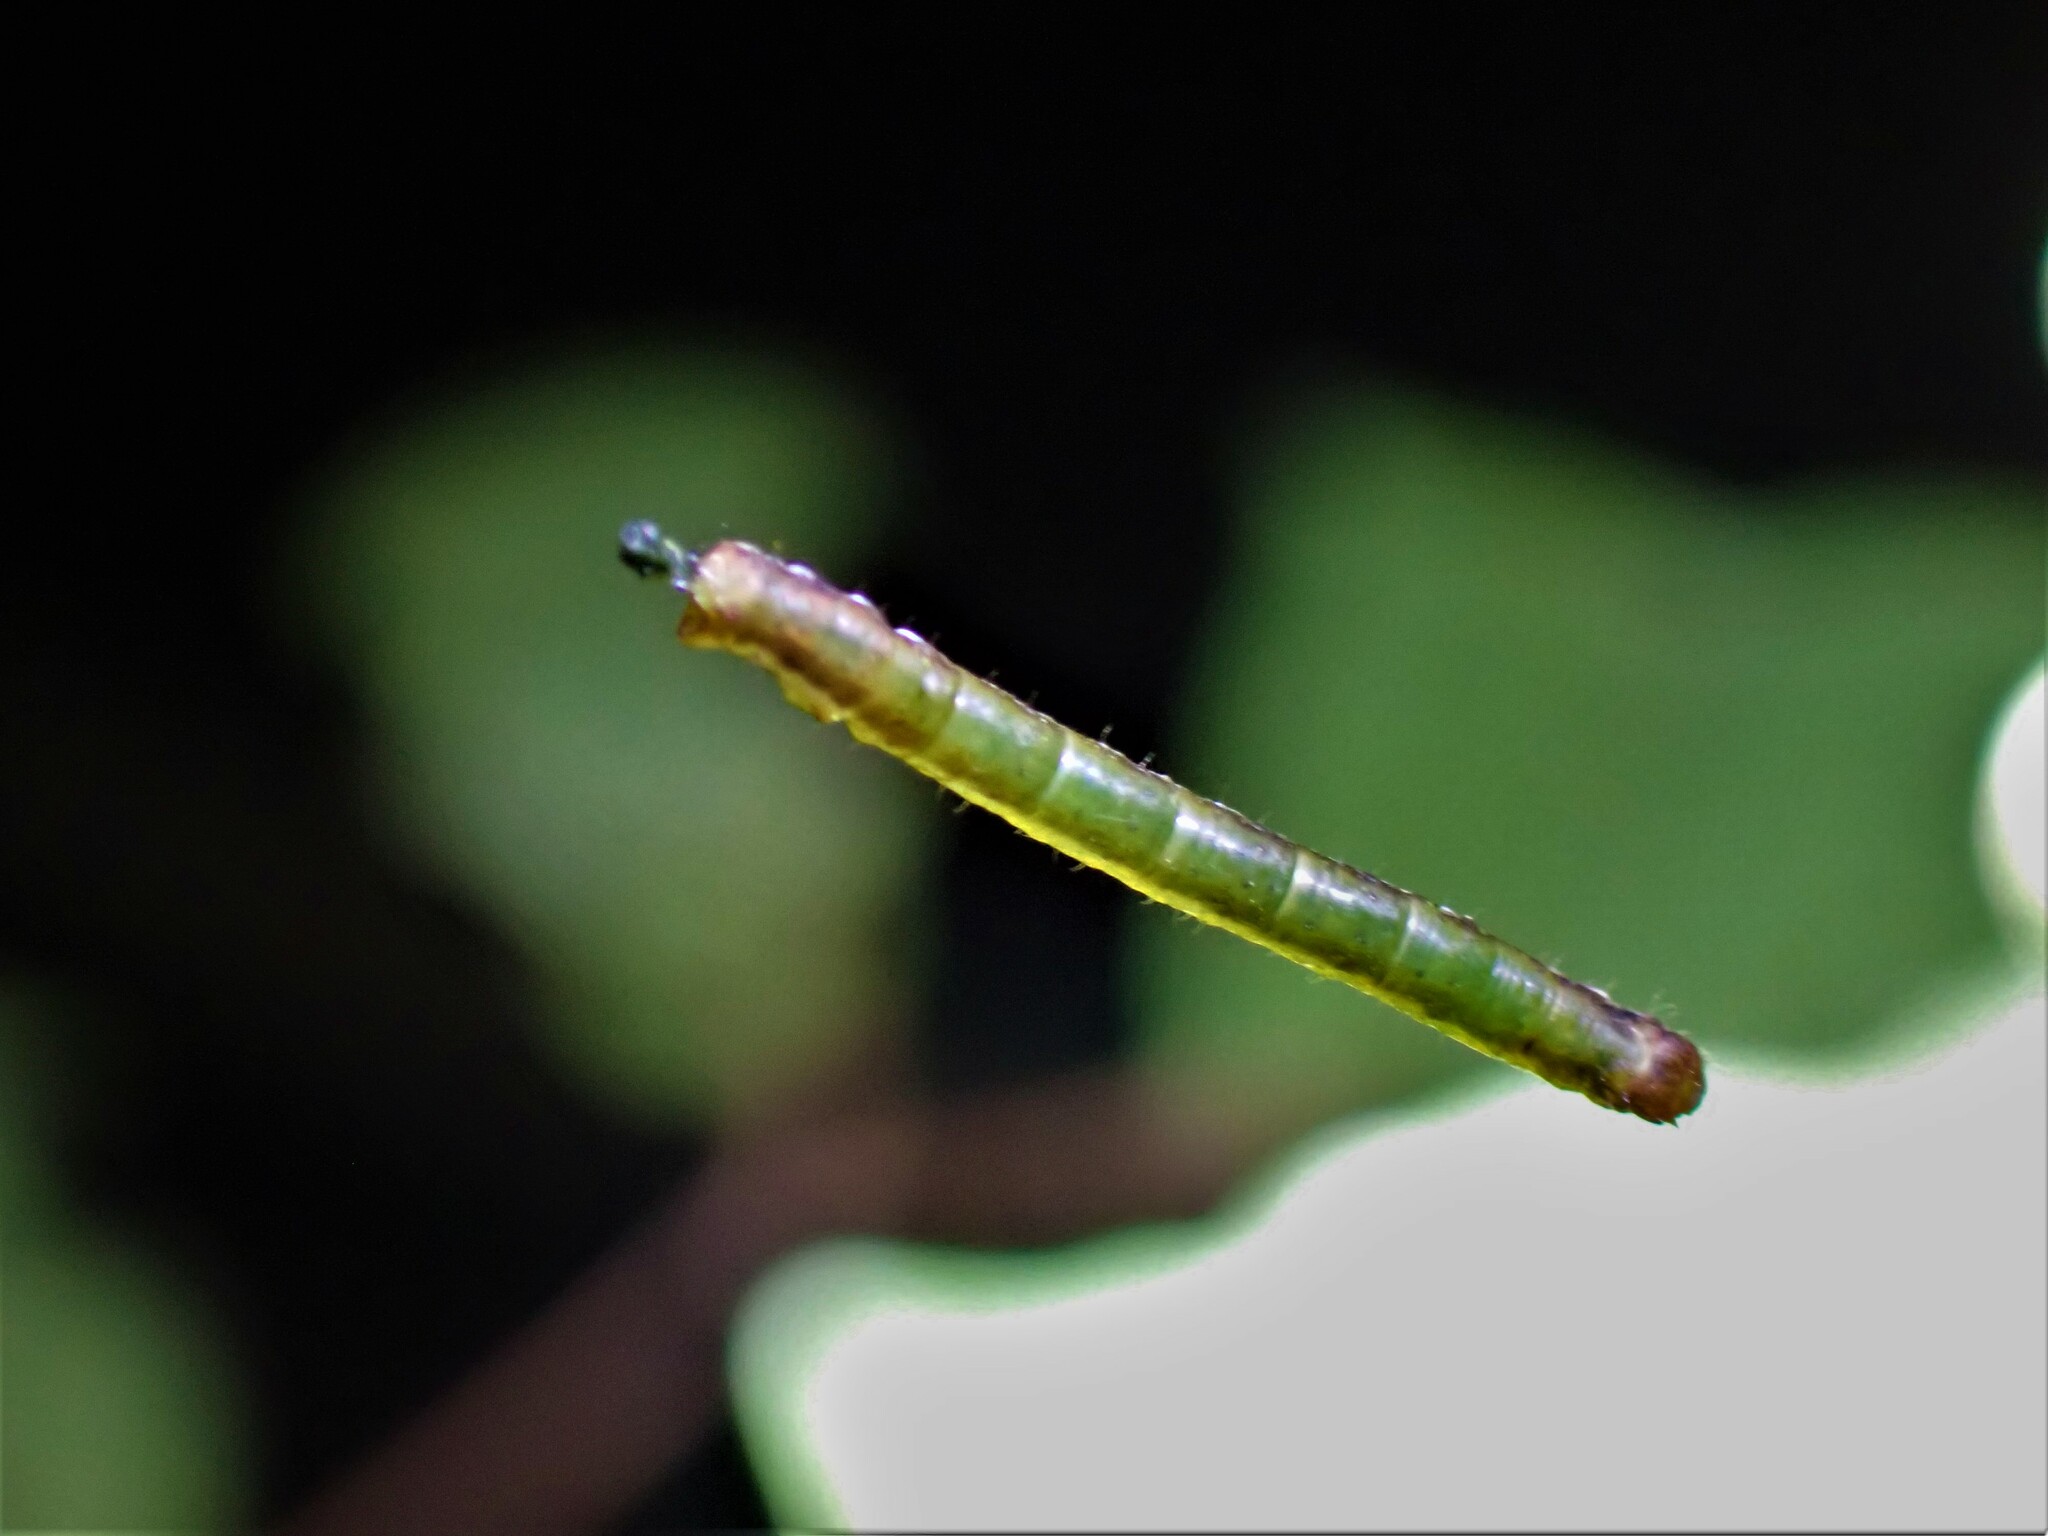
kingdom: Animalia
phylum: Arthropoda
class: Insecta
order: Lepidoptera
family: Geometridae
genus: Cleora
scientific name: Cleora scriptaria
